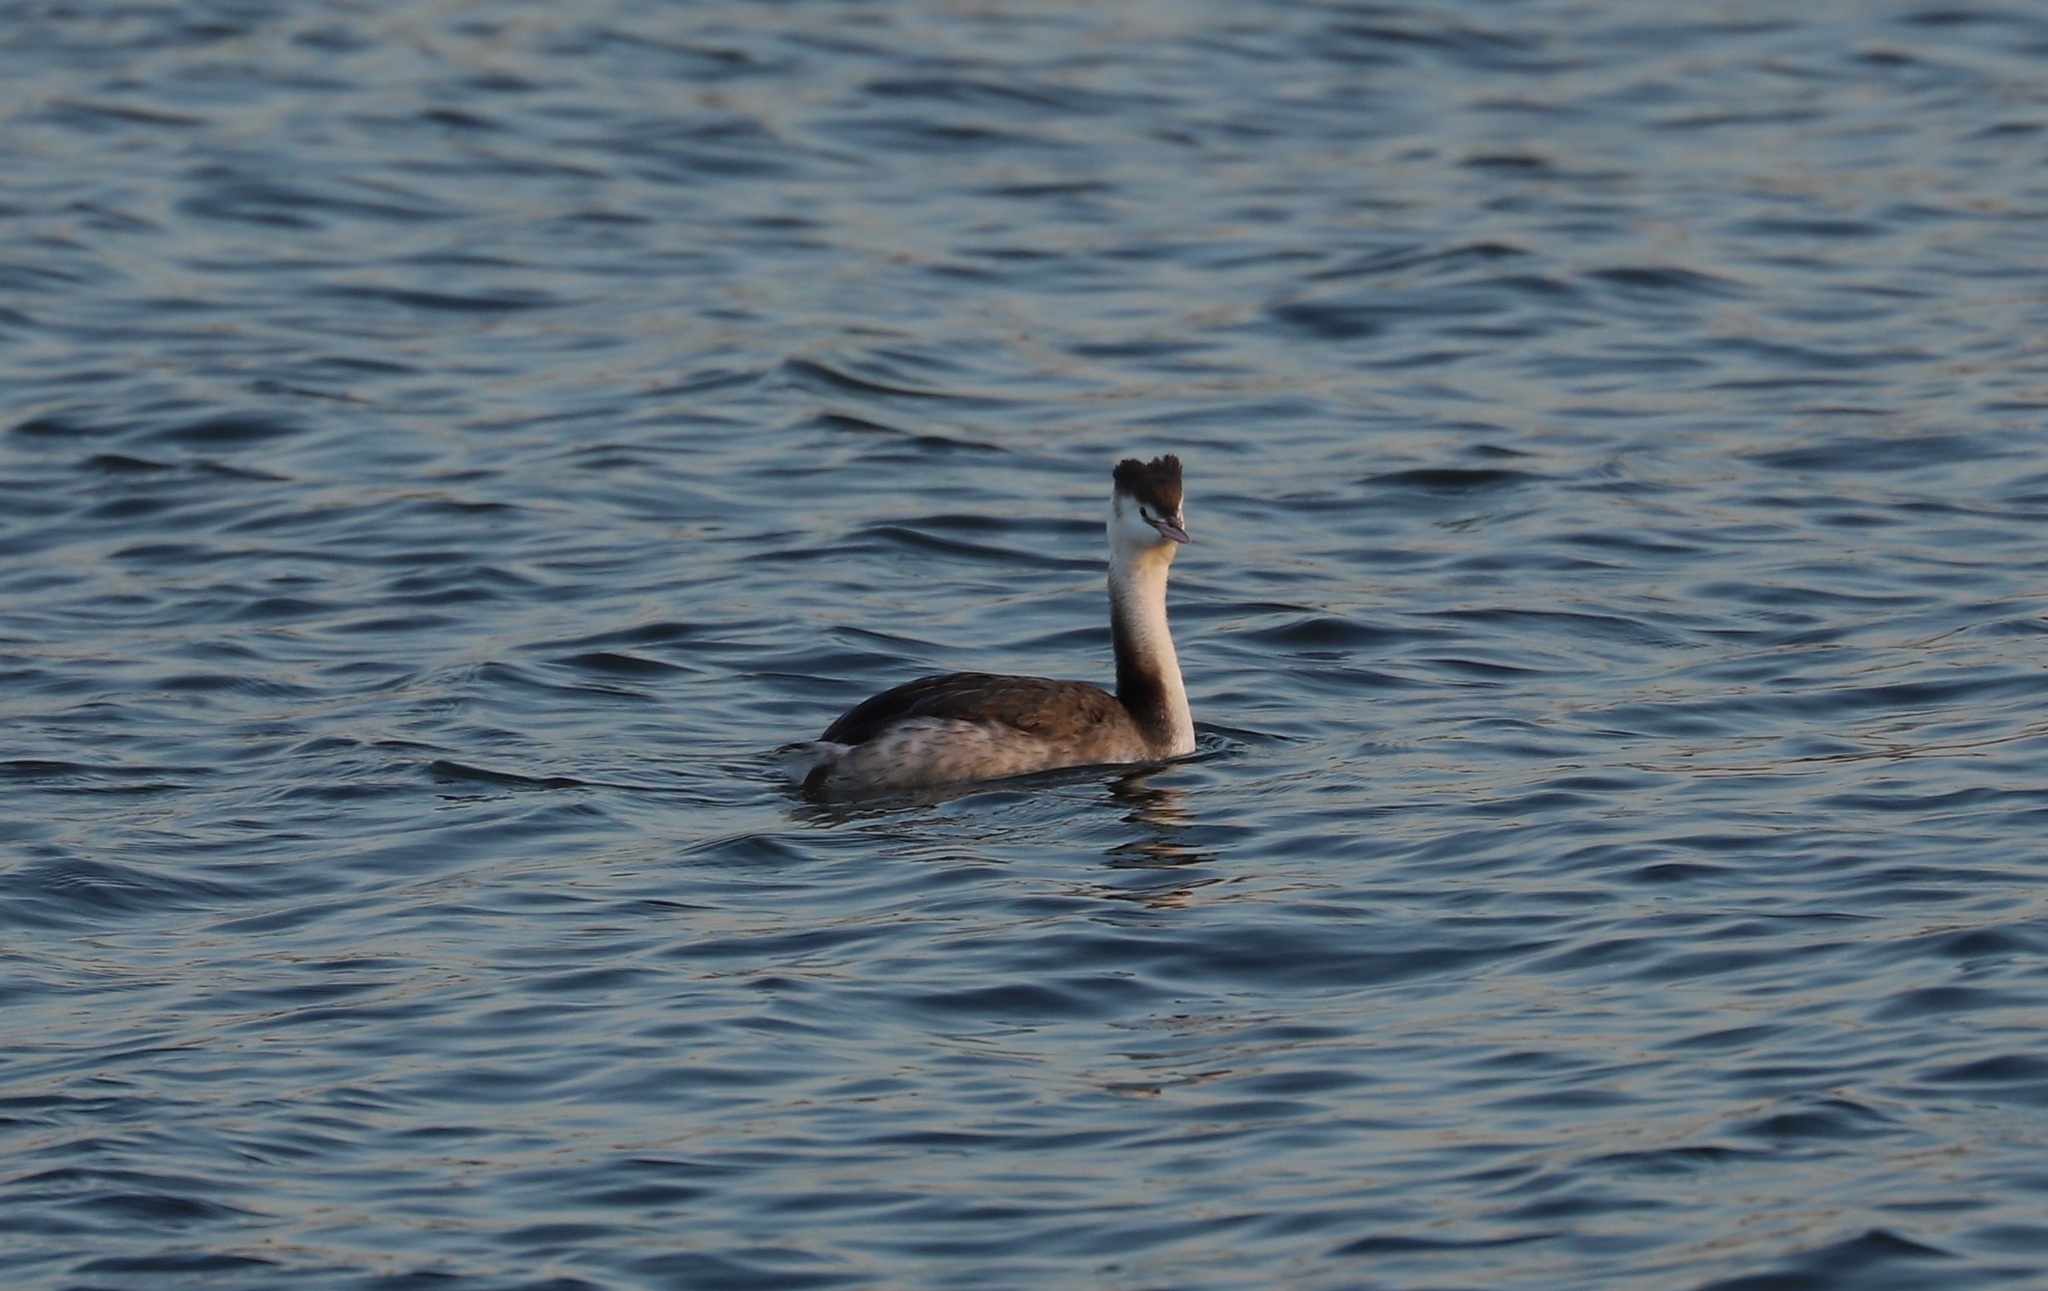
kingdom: Animalia
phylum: Chordata
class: Aves
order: Podicipediformes
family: Podicipedidae
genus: Podiceps
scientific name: Podiceps cristatus
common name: Great crested grebe
